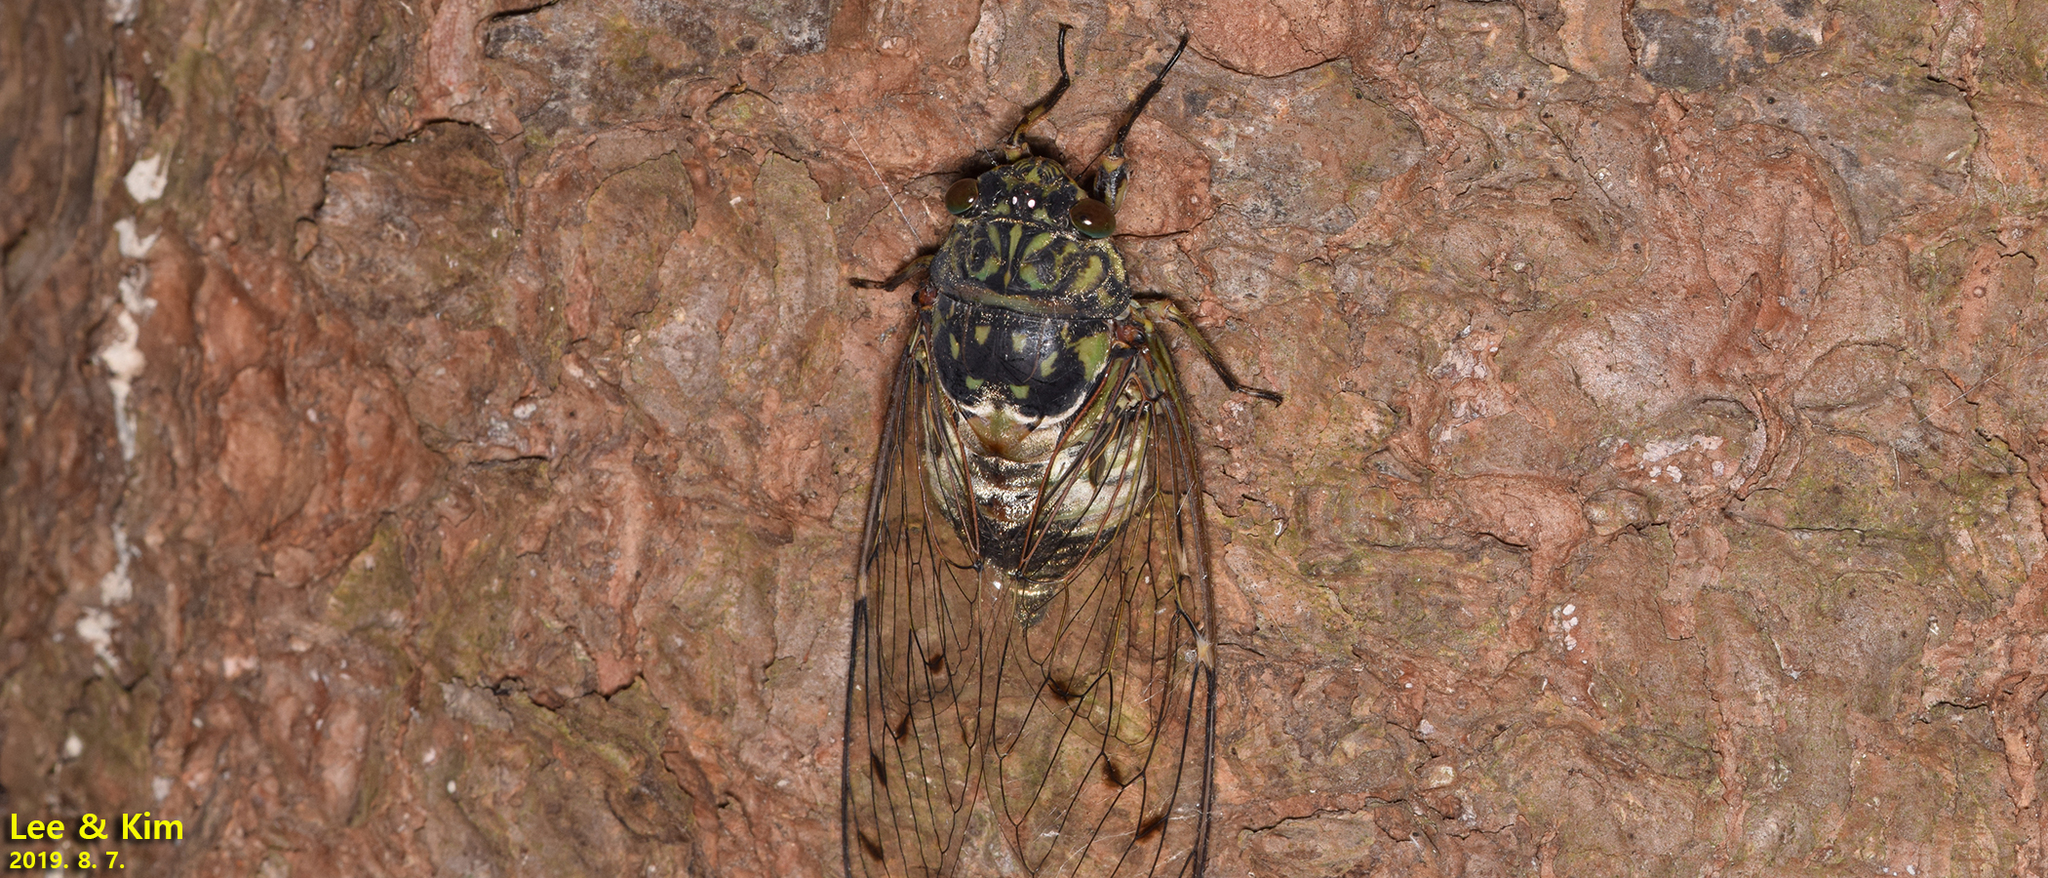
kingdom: Animalia
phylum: Arthropoda
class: Insecta
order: Hemiptera
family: Cicadidae
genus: Hyalessa
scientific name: Hyalessa maculaticollis
